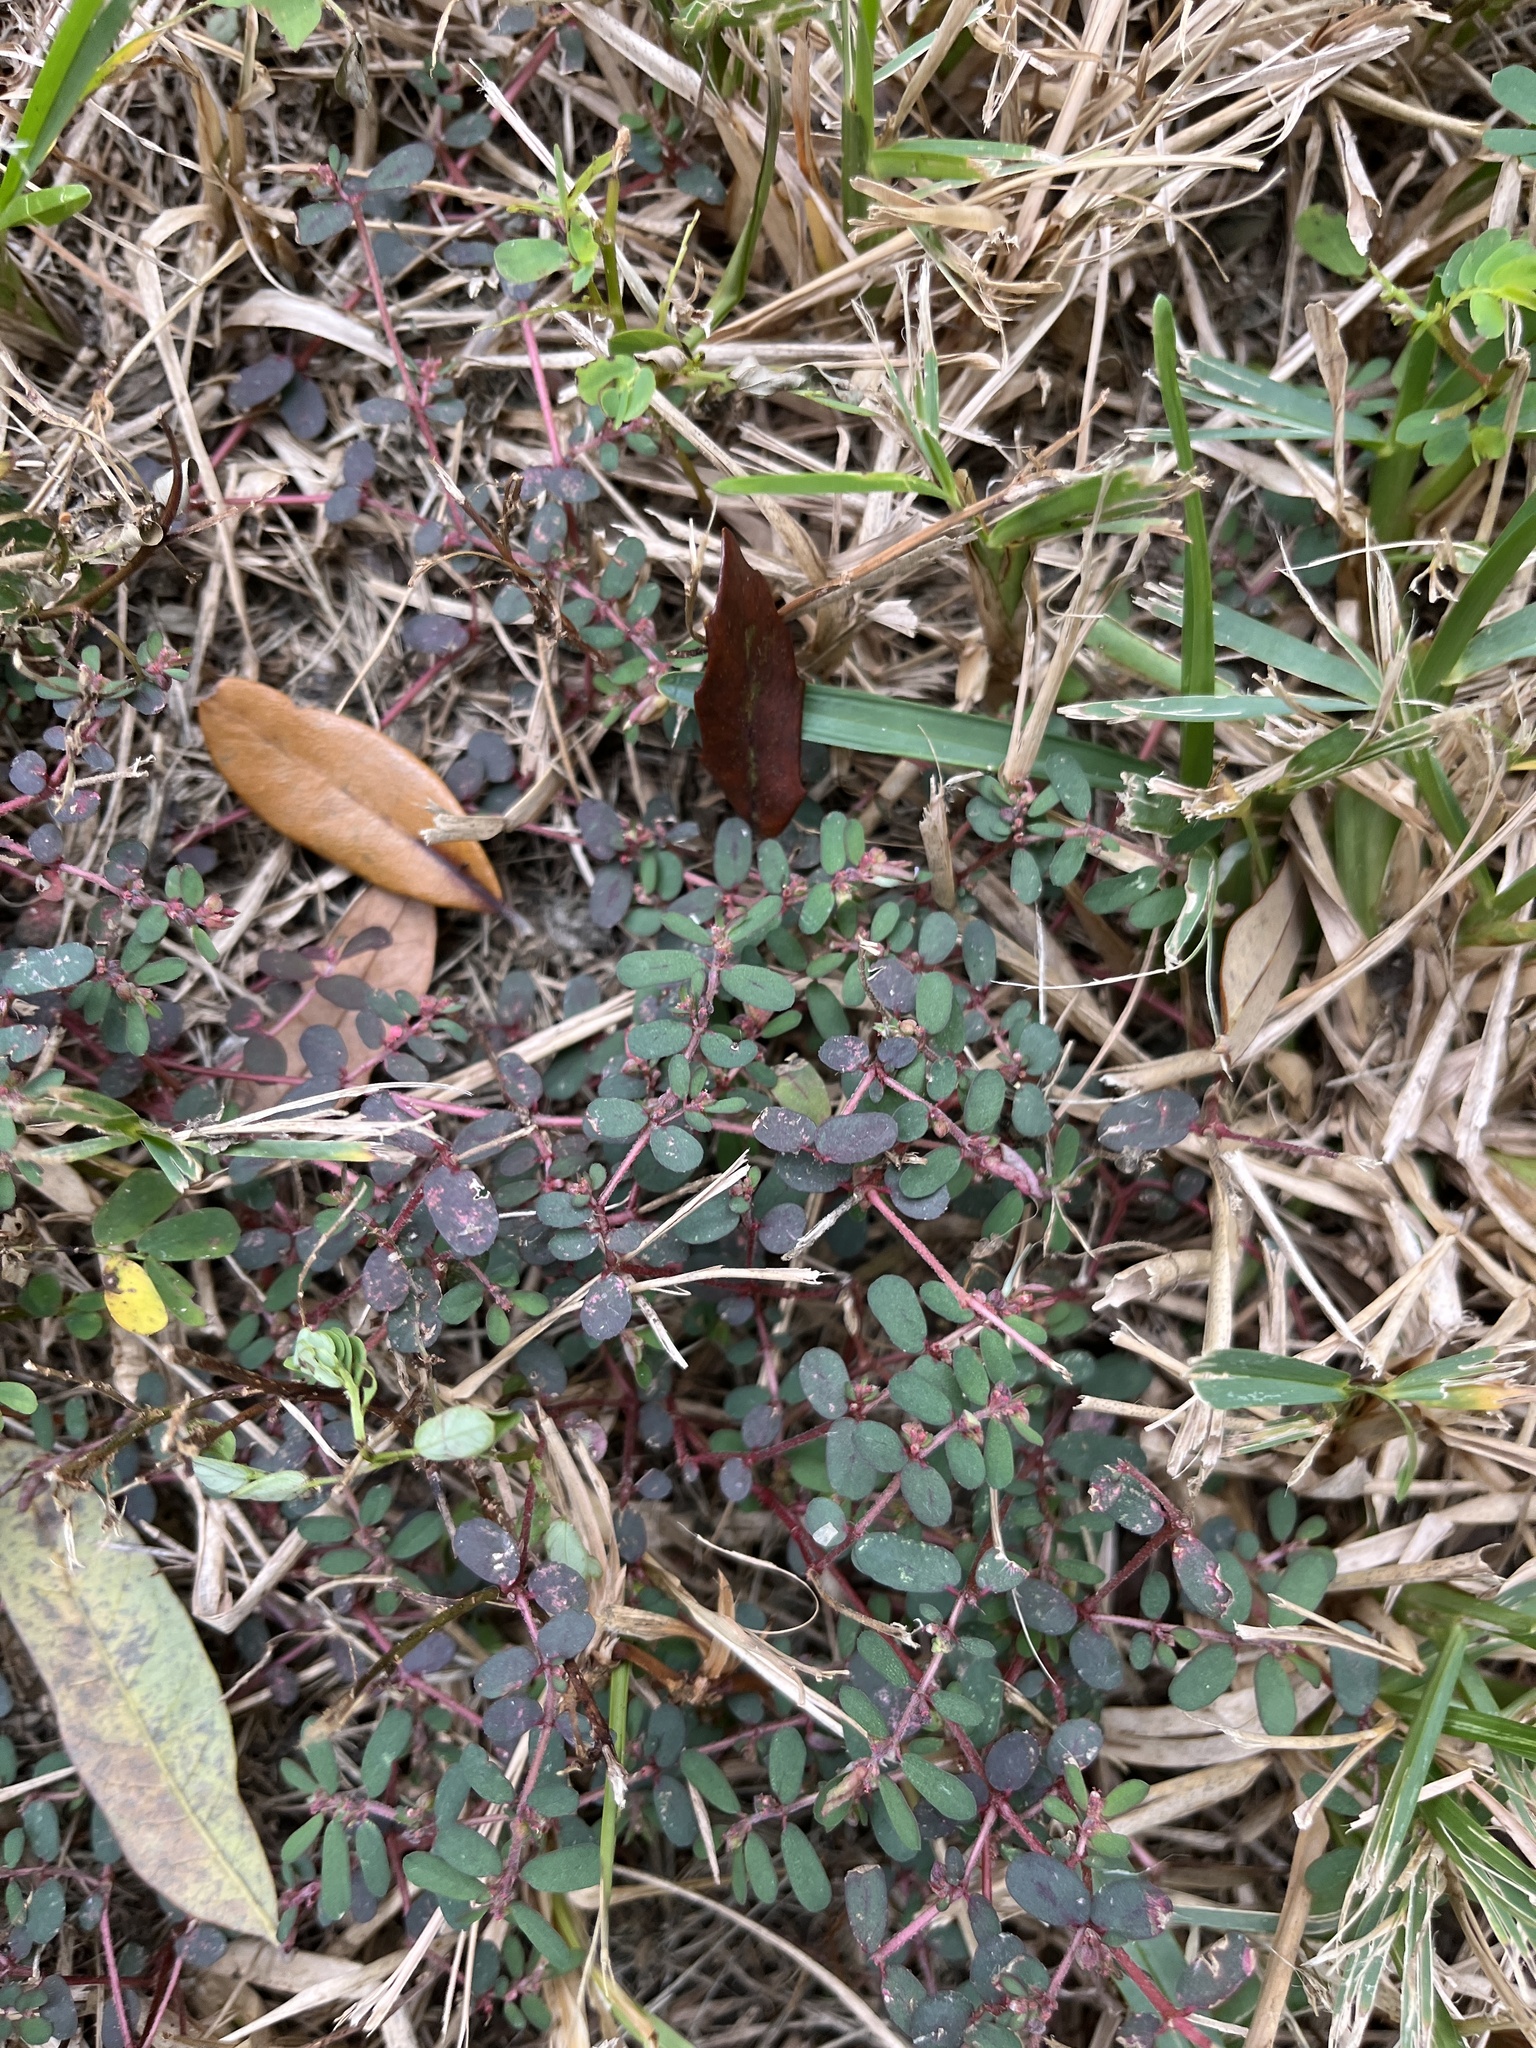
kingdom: Plantae
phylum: Tracheophyta
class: Magnoliopsida
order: Malpighiales
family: Euphorbiaceae
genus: Euphorbia
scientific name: Euphorbia maculata
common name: Spotted spurge
